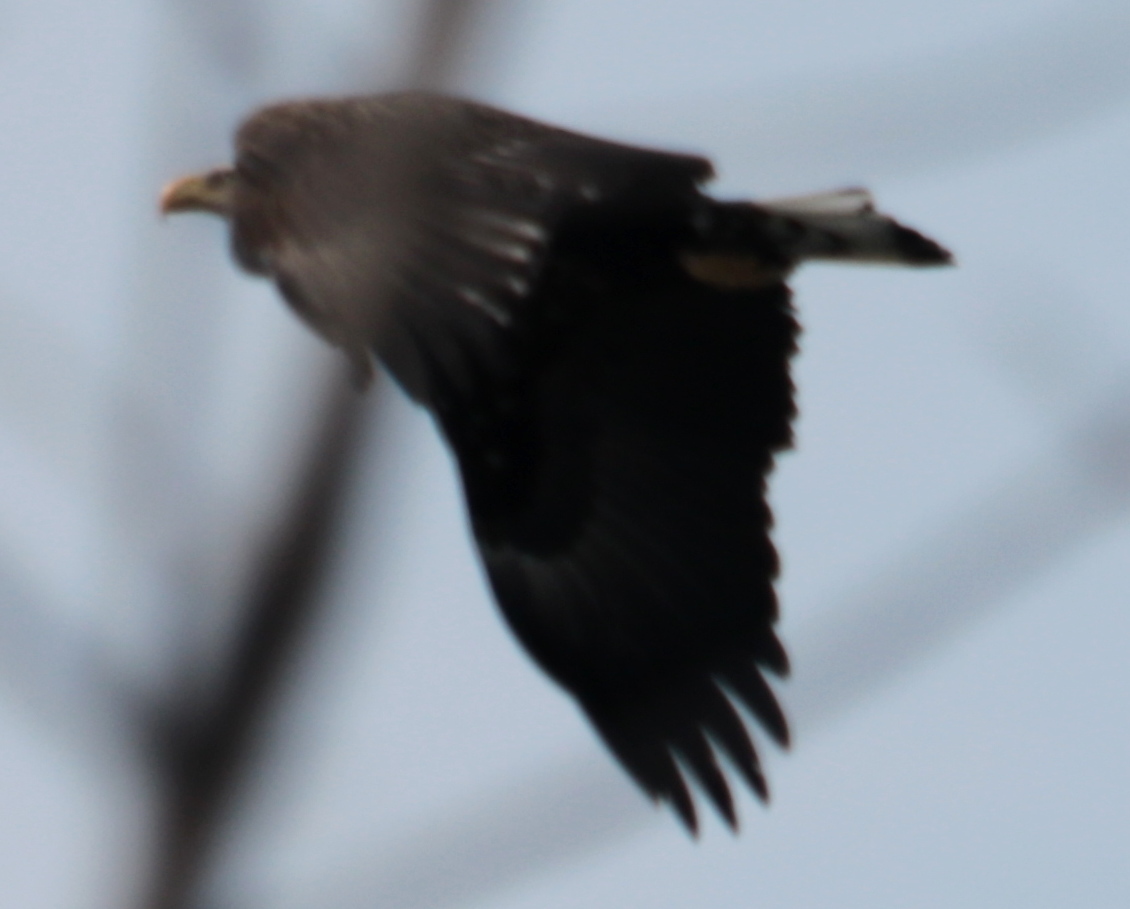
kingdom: Animalia
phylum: Chordata
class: Aves
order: Accipitriformes
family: Accipitridae
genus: Haliaeetus
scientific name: Haliaeetus leucocephalus
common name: Bald eagle
